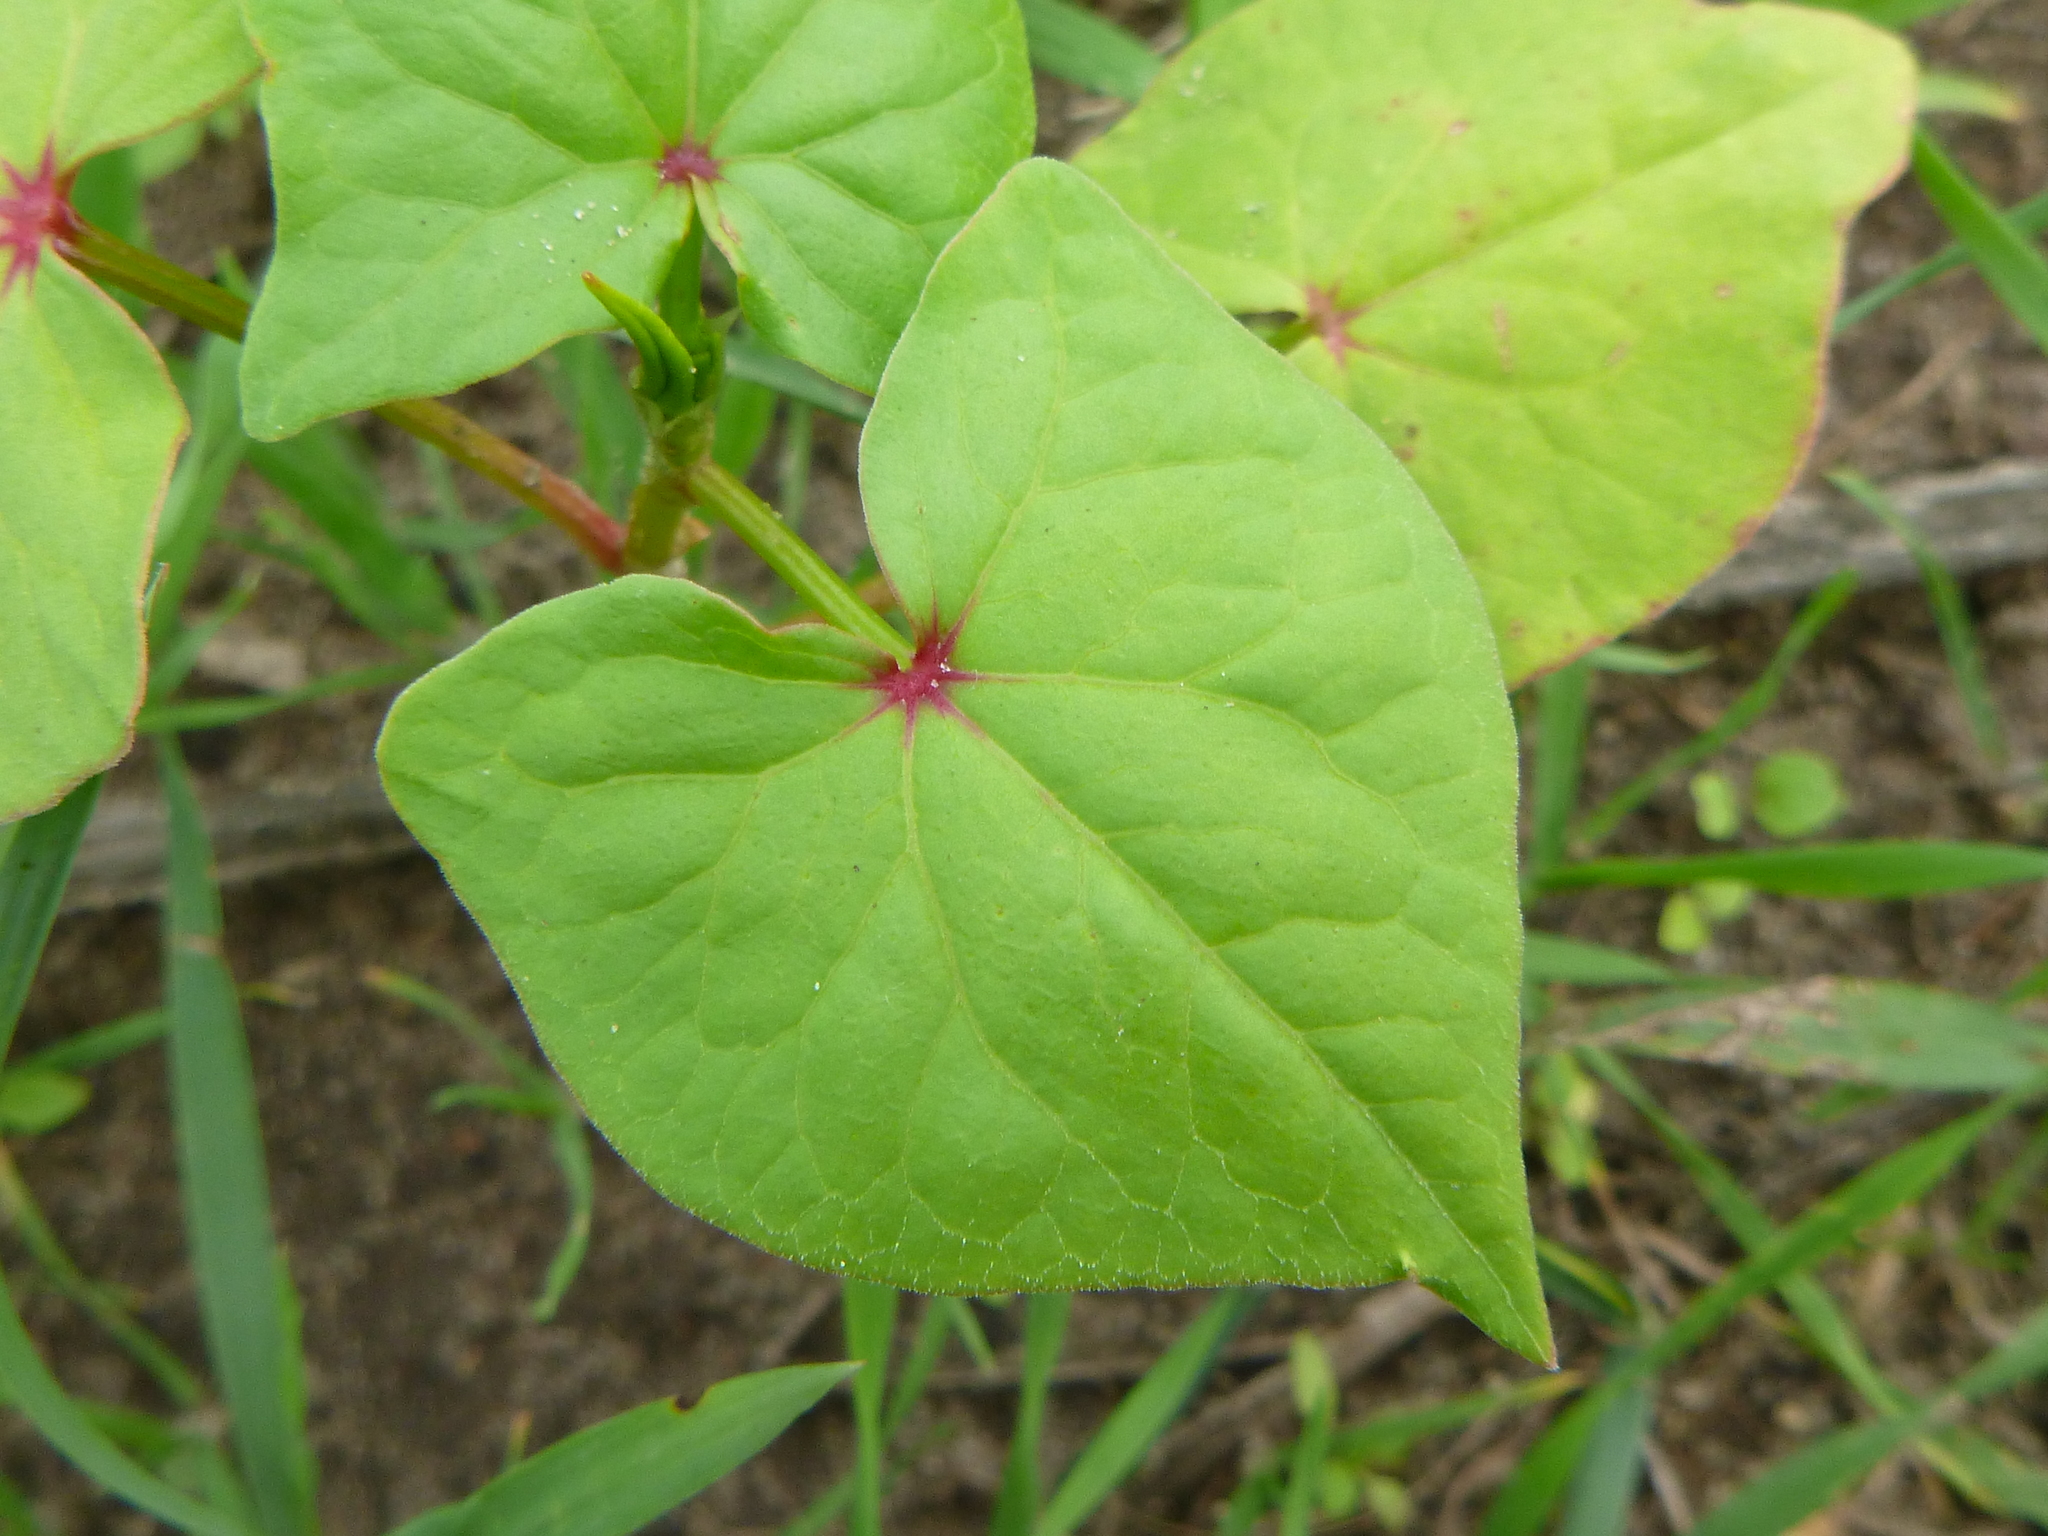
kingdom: Plantae
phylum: Tracheophyta
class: Magnoliopsida
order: Caryophyllales
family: Polygonaceae
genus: Fagopyrum
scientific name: Fagopyrum esculentum
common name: Buckwheat
